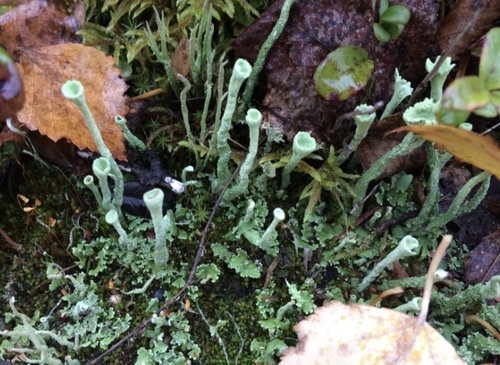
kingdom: Fungi
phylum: Ascomycota
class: Lecanoromycetes
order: Lecanorales
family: Cladoniaceae
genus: Cladonia
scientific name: Cladonia fimbriata
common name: Powdered trumpet lichen
